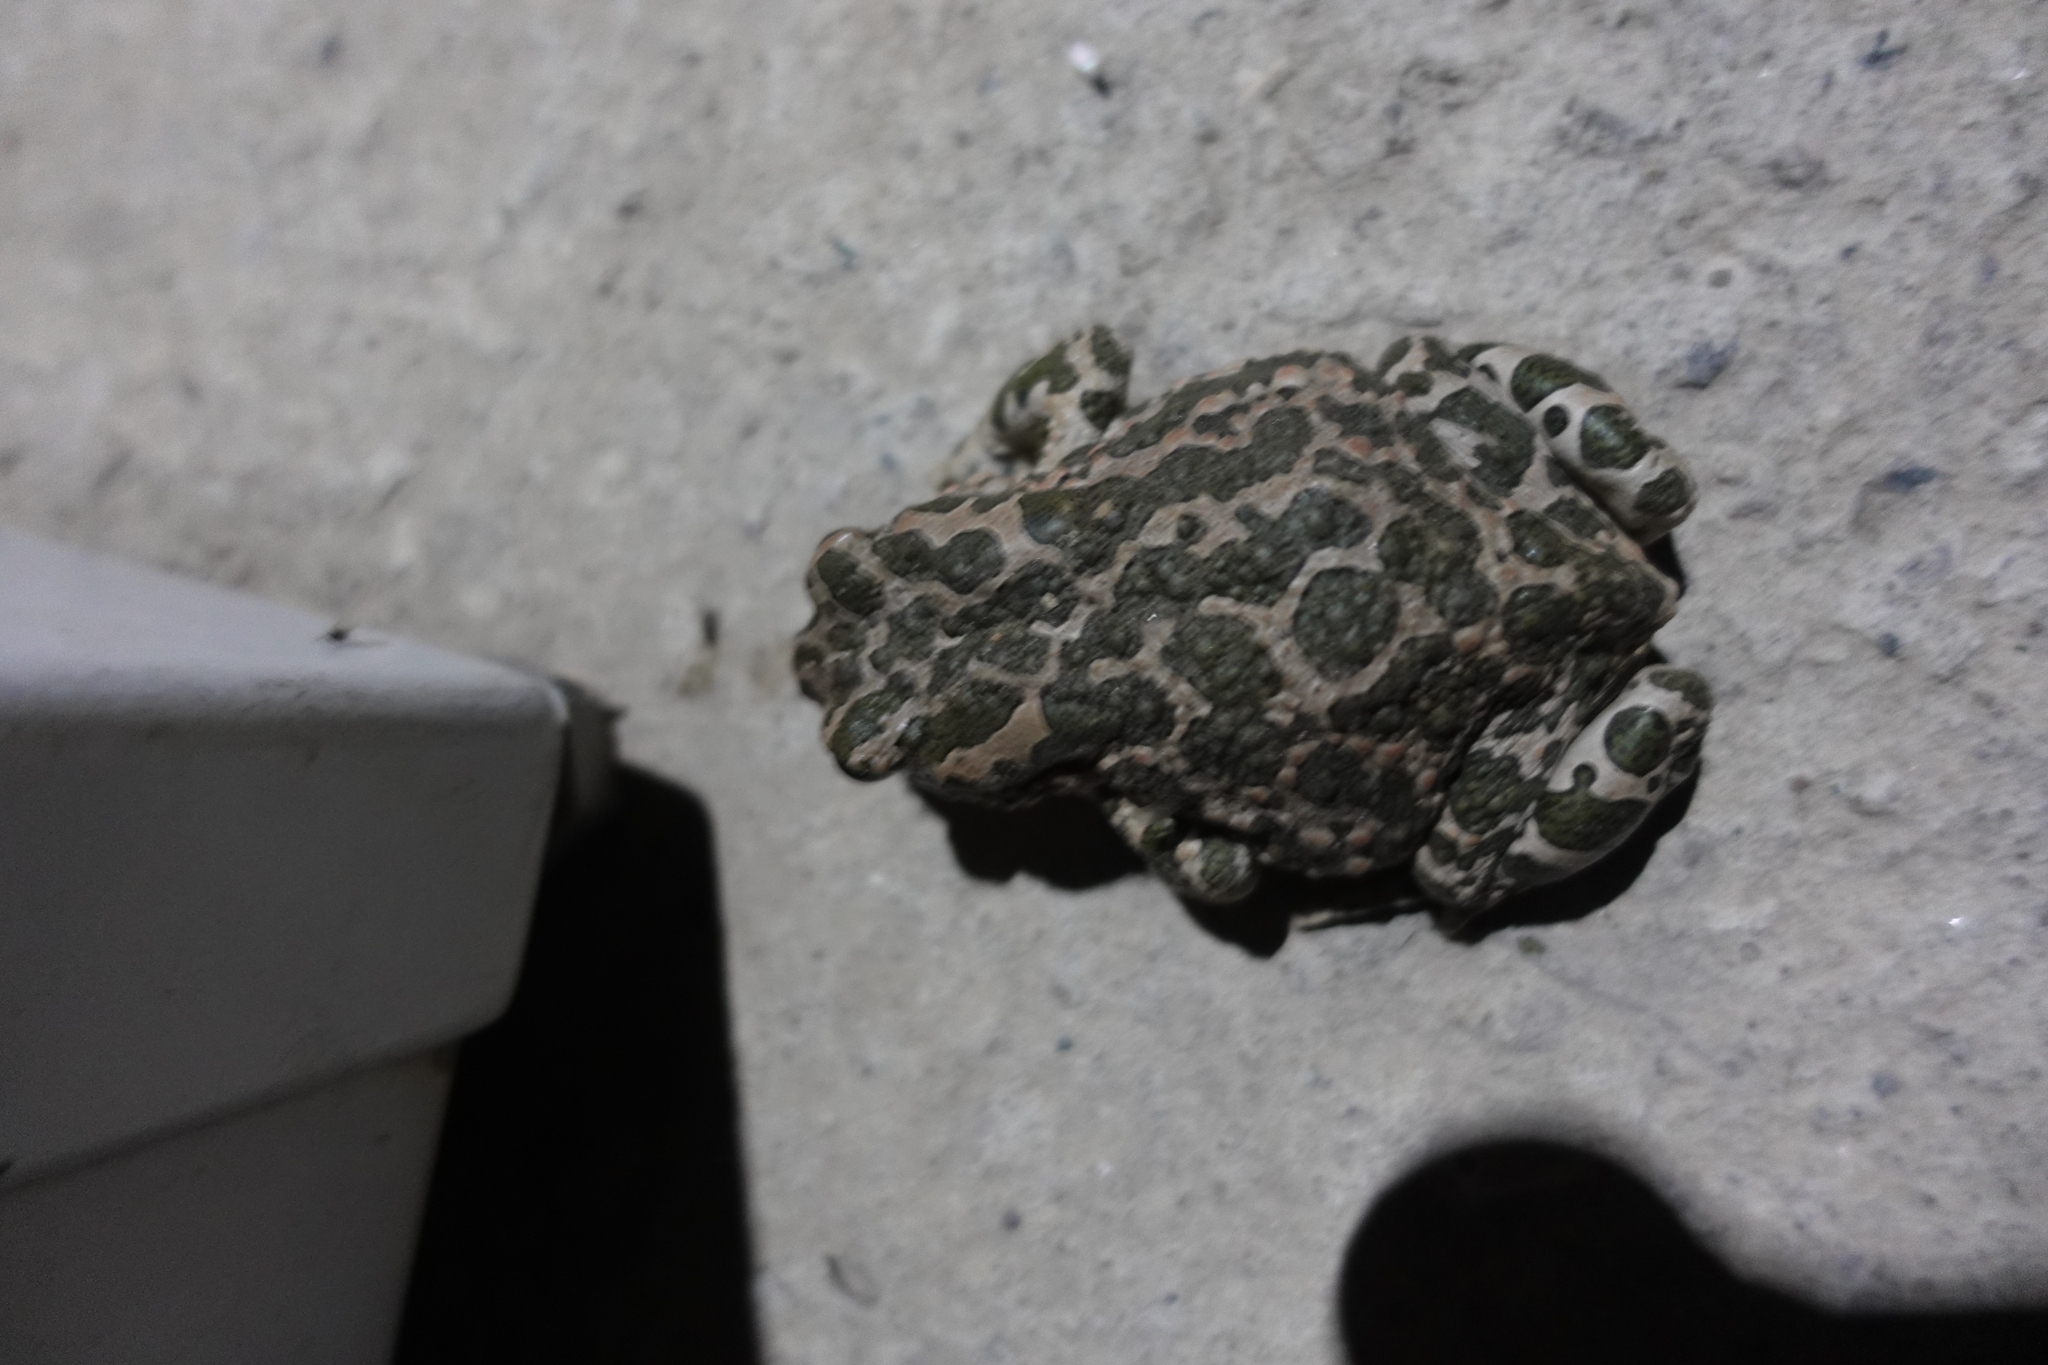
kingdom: Animalia
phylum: Chordata
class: Amphibia
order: Anura
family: Bufonidae
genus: Bufotes
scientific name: Bufotes viridis
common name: European green toad
